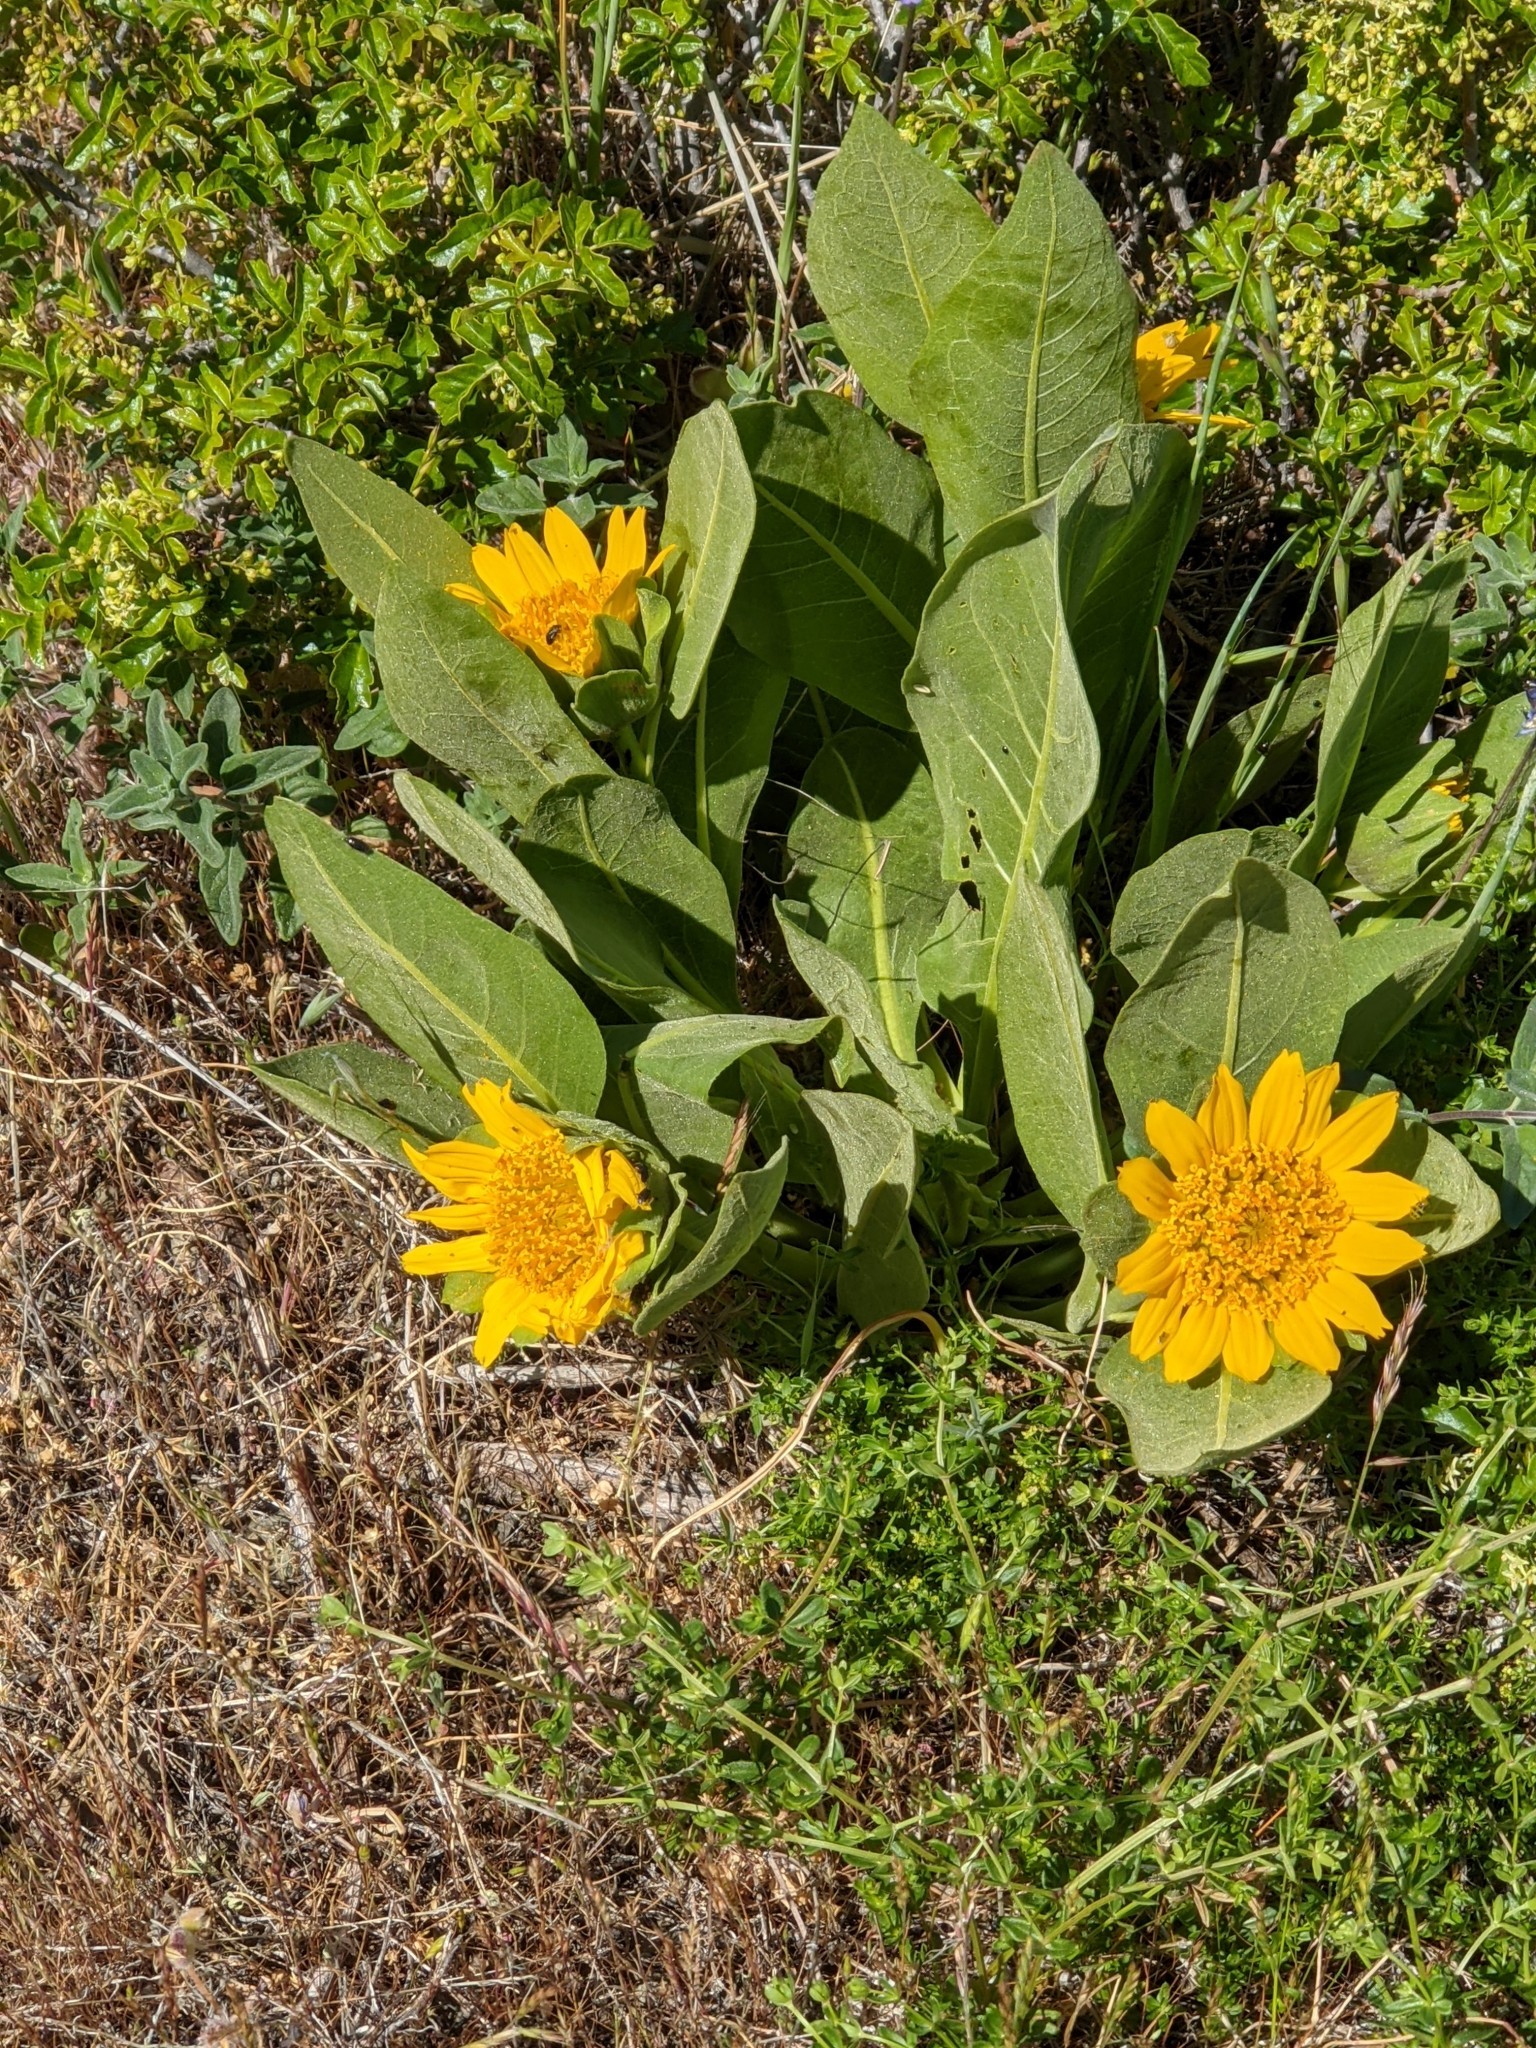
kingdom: Plantae
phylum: Tracheophyta
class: Magnoliopsida
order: Asterales
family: Asteraceae
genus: Wyethia
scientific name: Wyethia glabra
